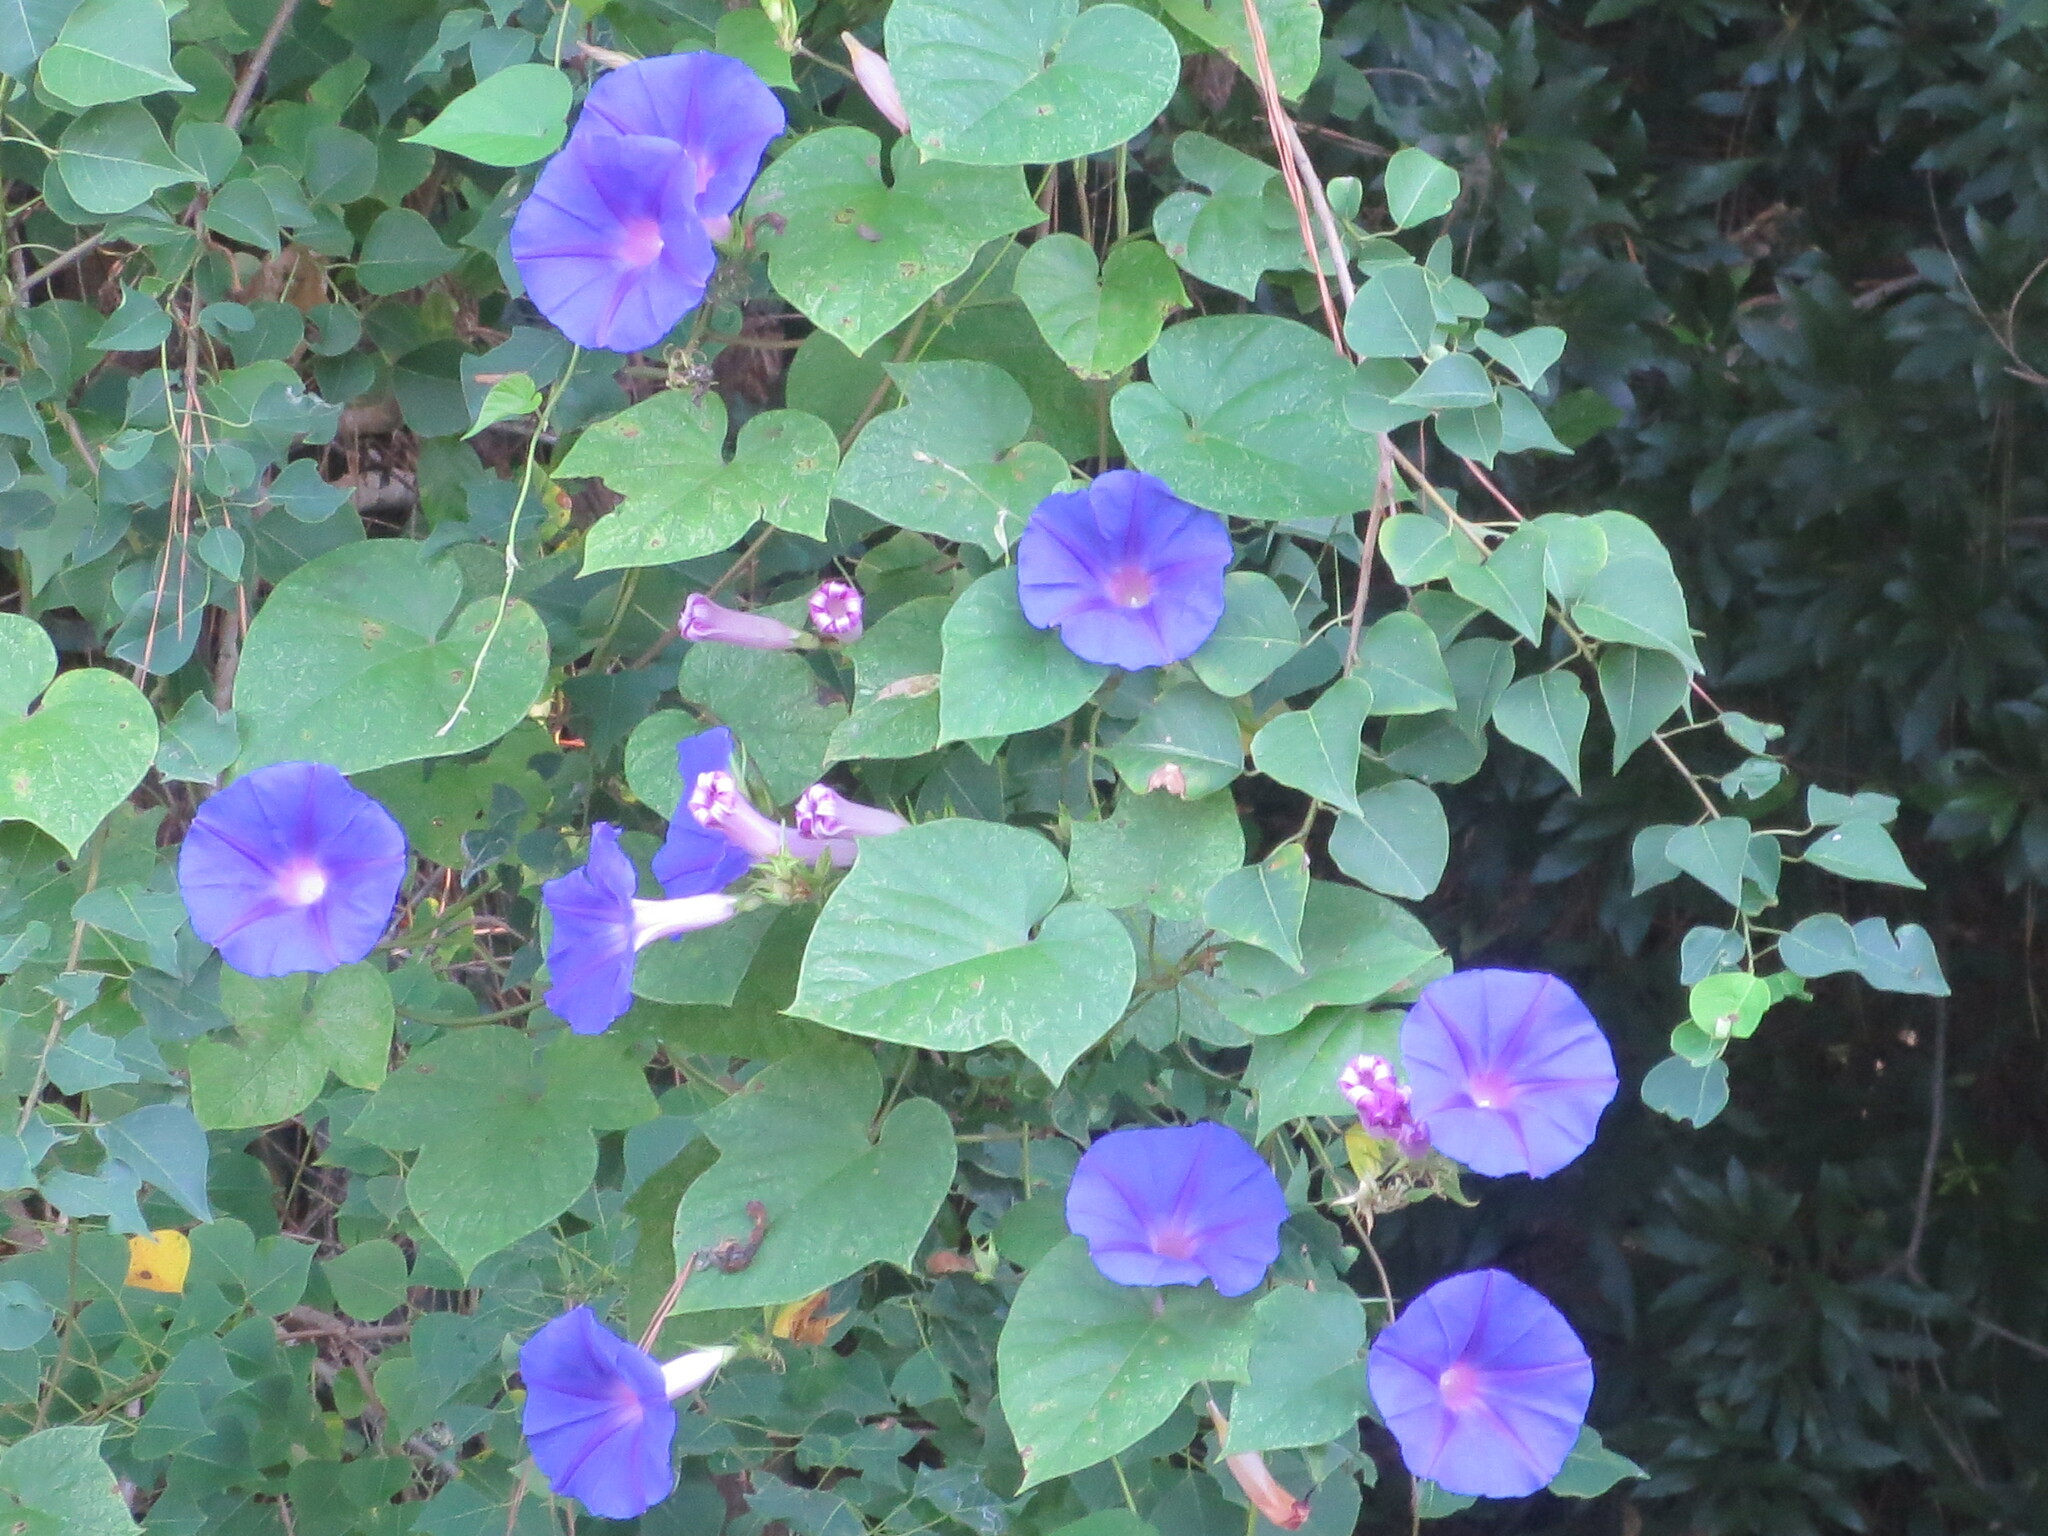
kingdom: Plantae
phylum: Tracheophyta
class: Magnoliopsida
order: Solanales
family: Convolvulaceae
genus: Ipomoea
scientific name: Ipomoea indica
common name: Blue dawnflower
